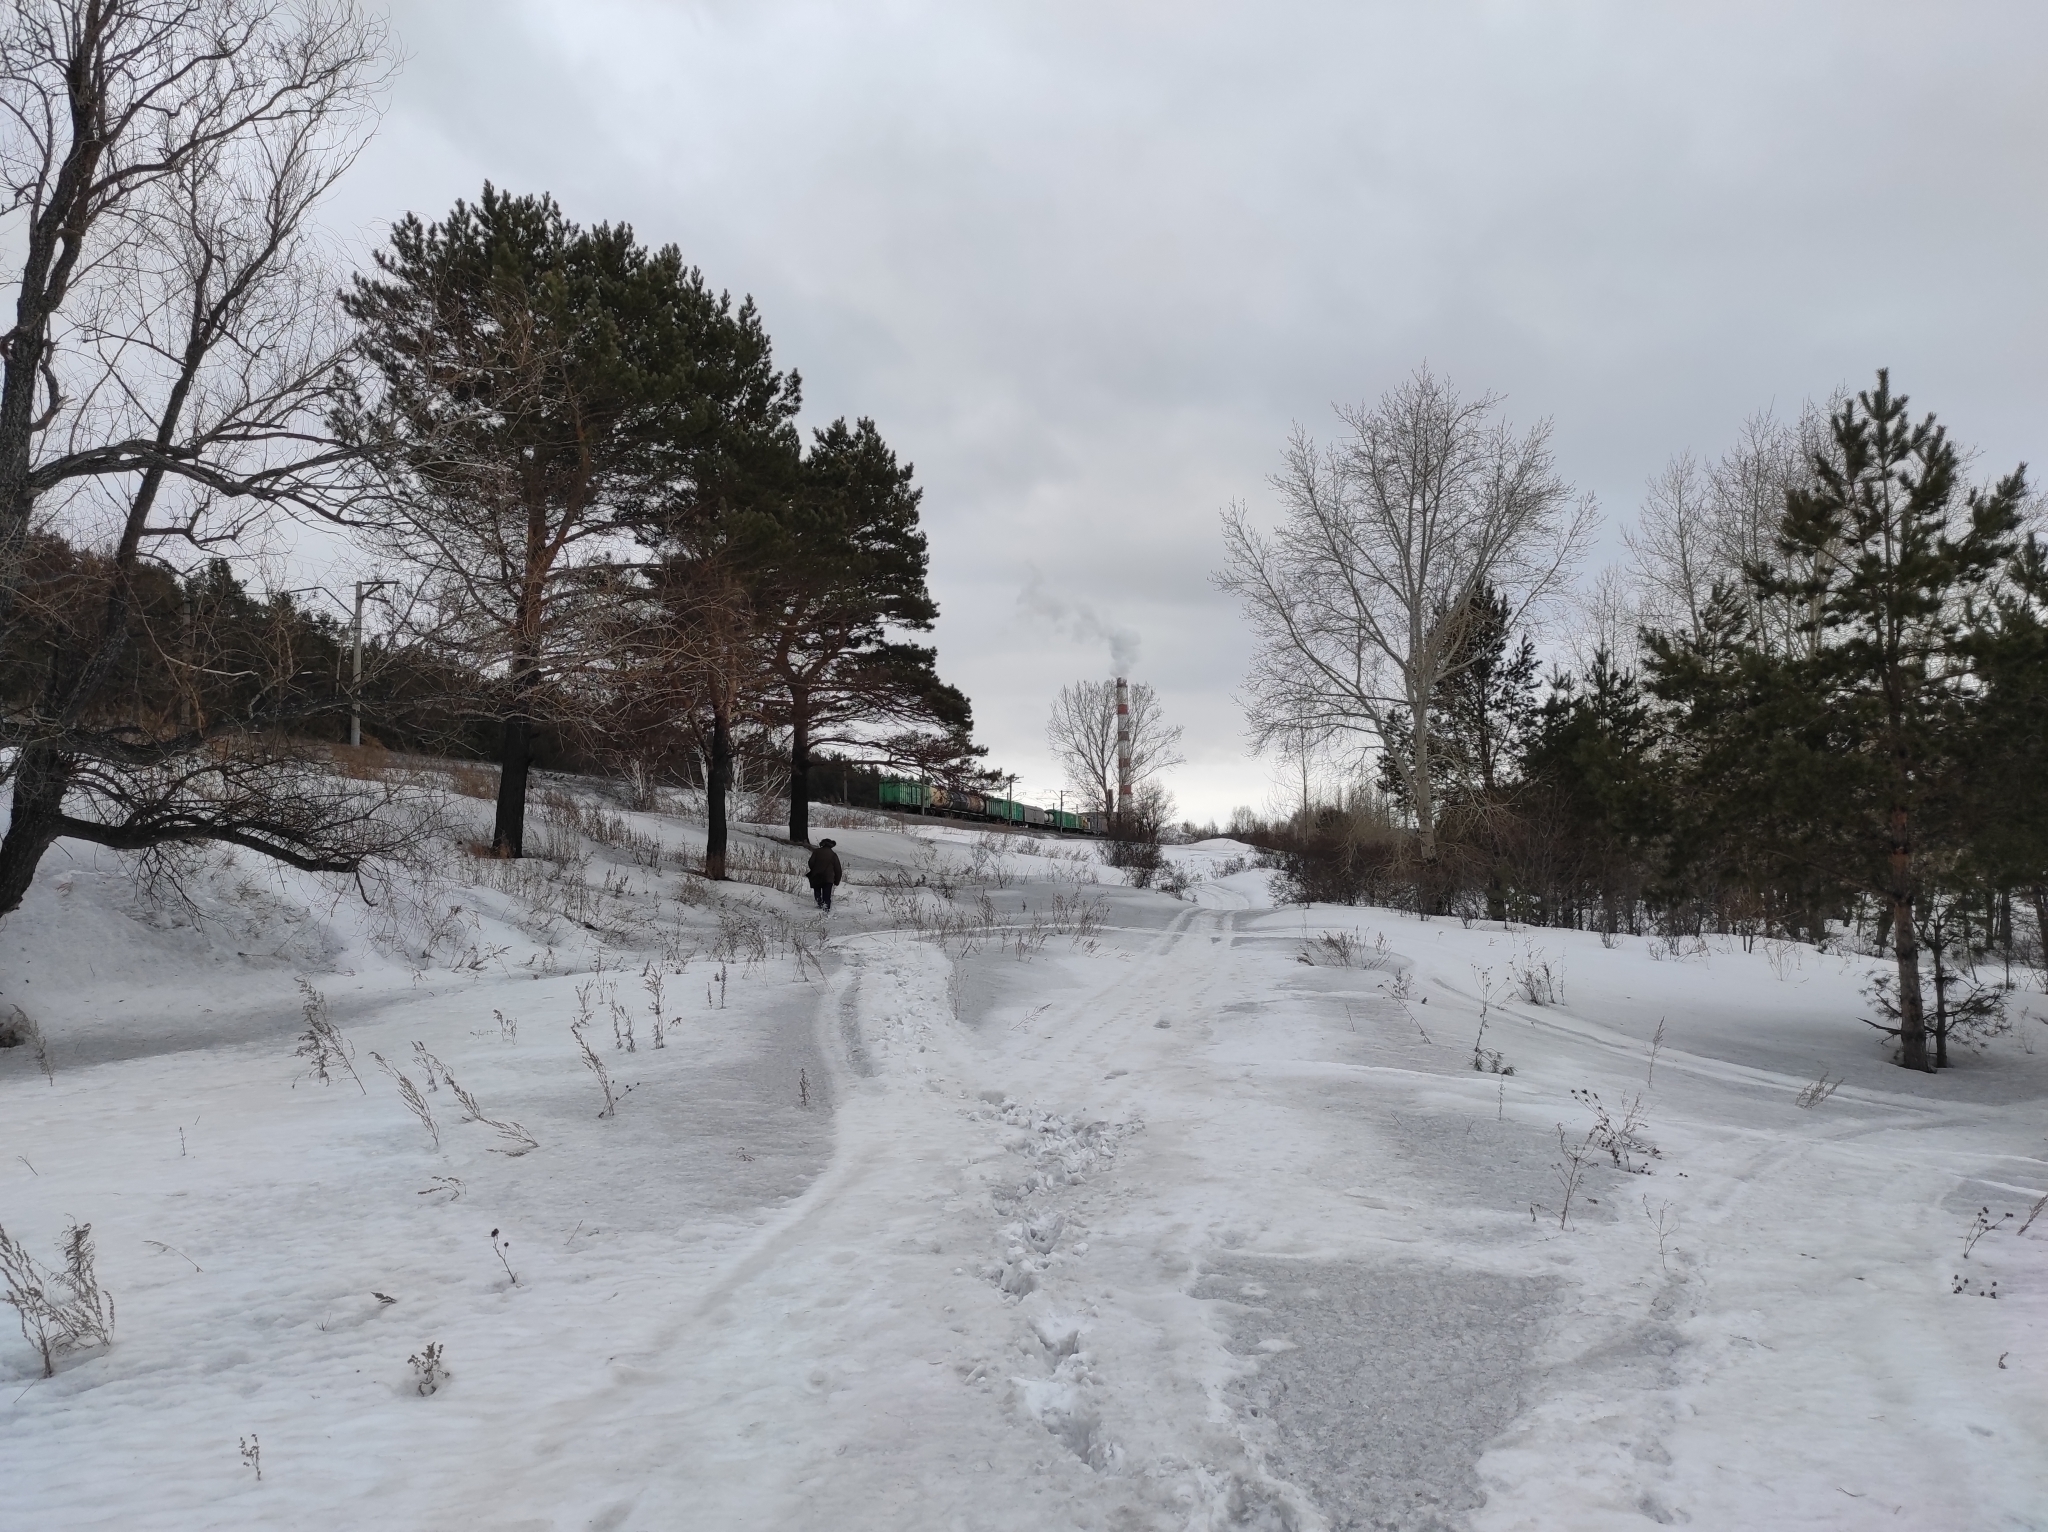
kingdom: Plantae
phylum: Tracheophyta
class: Pinopsida
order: Pinales
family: Pinaceae
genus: Pinus
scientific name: Pinus sylvestris
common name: Scots pine
